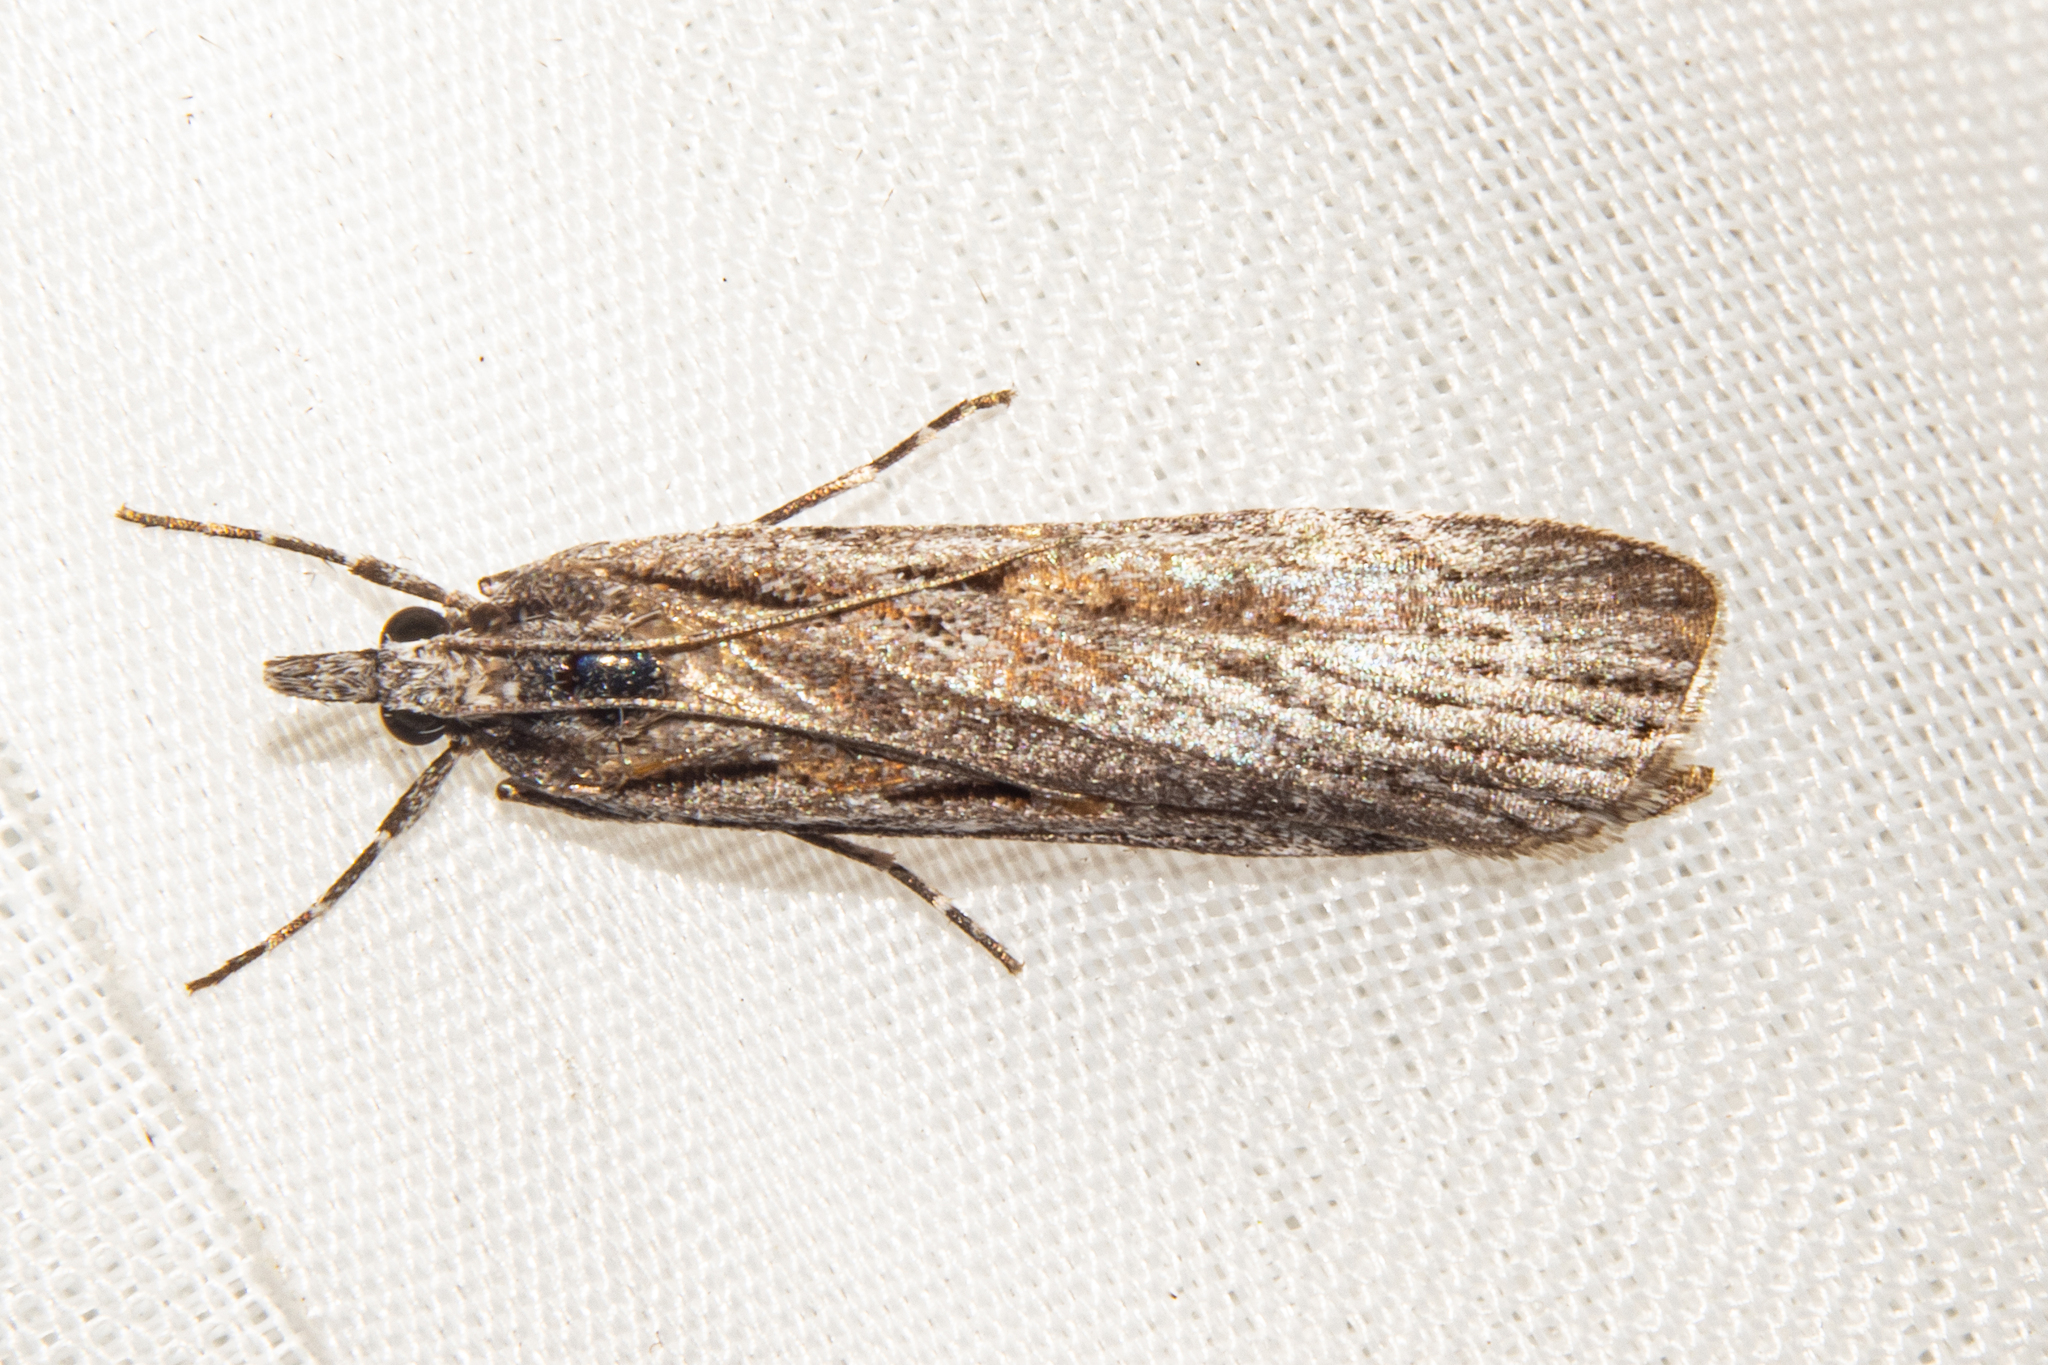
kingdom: Animalia
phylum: Arthropoda
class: Insecta
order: Lepidoptera
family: Crambidae
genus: Scoparia
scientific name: Scoparia indistinctalis
